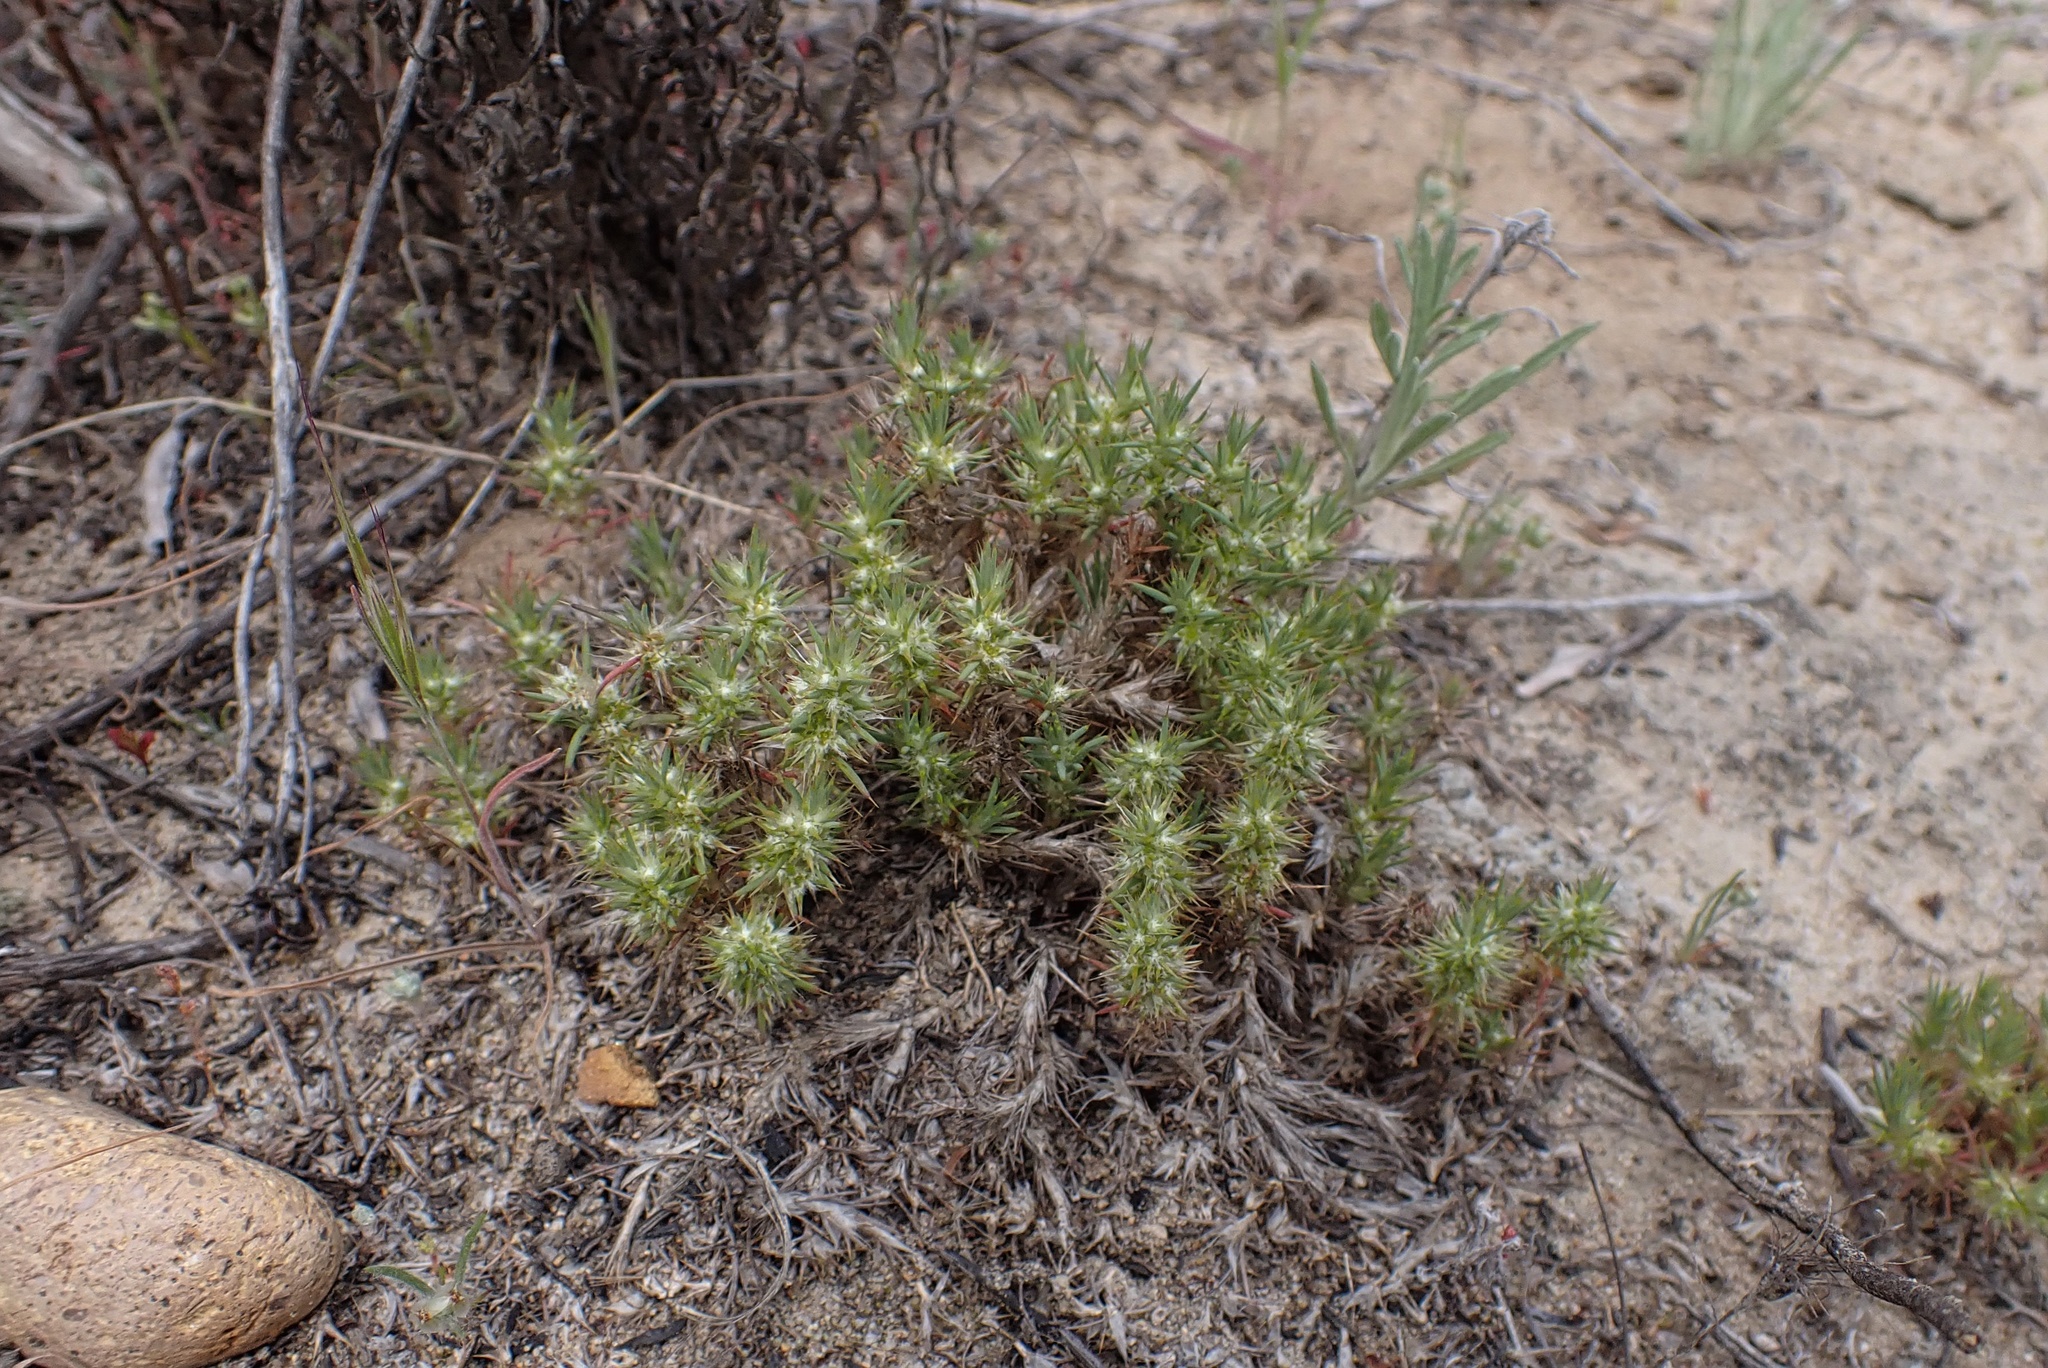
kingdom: Plantae
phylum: Tracheophyta
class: Magnoliopsida
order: Caryophyllales
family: Caryophyllaceae
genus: Cardionema
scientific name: Cardionema ramosissima
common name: Sandcarpet
